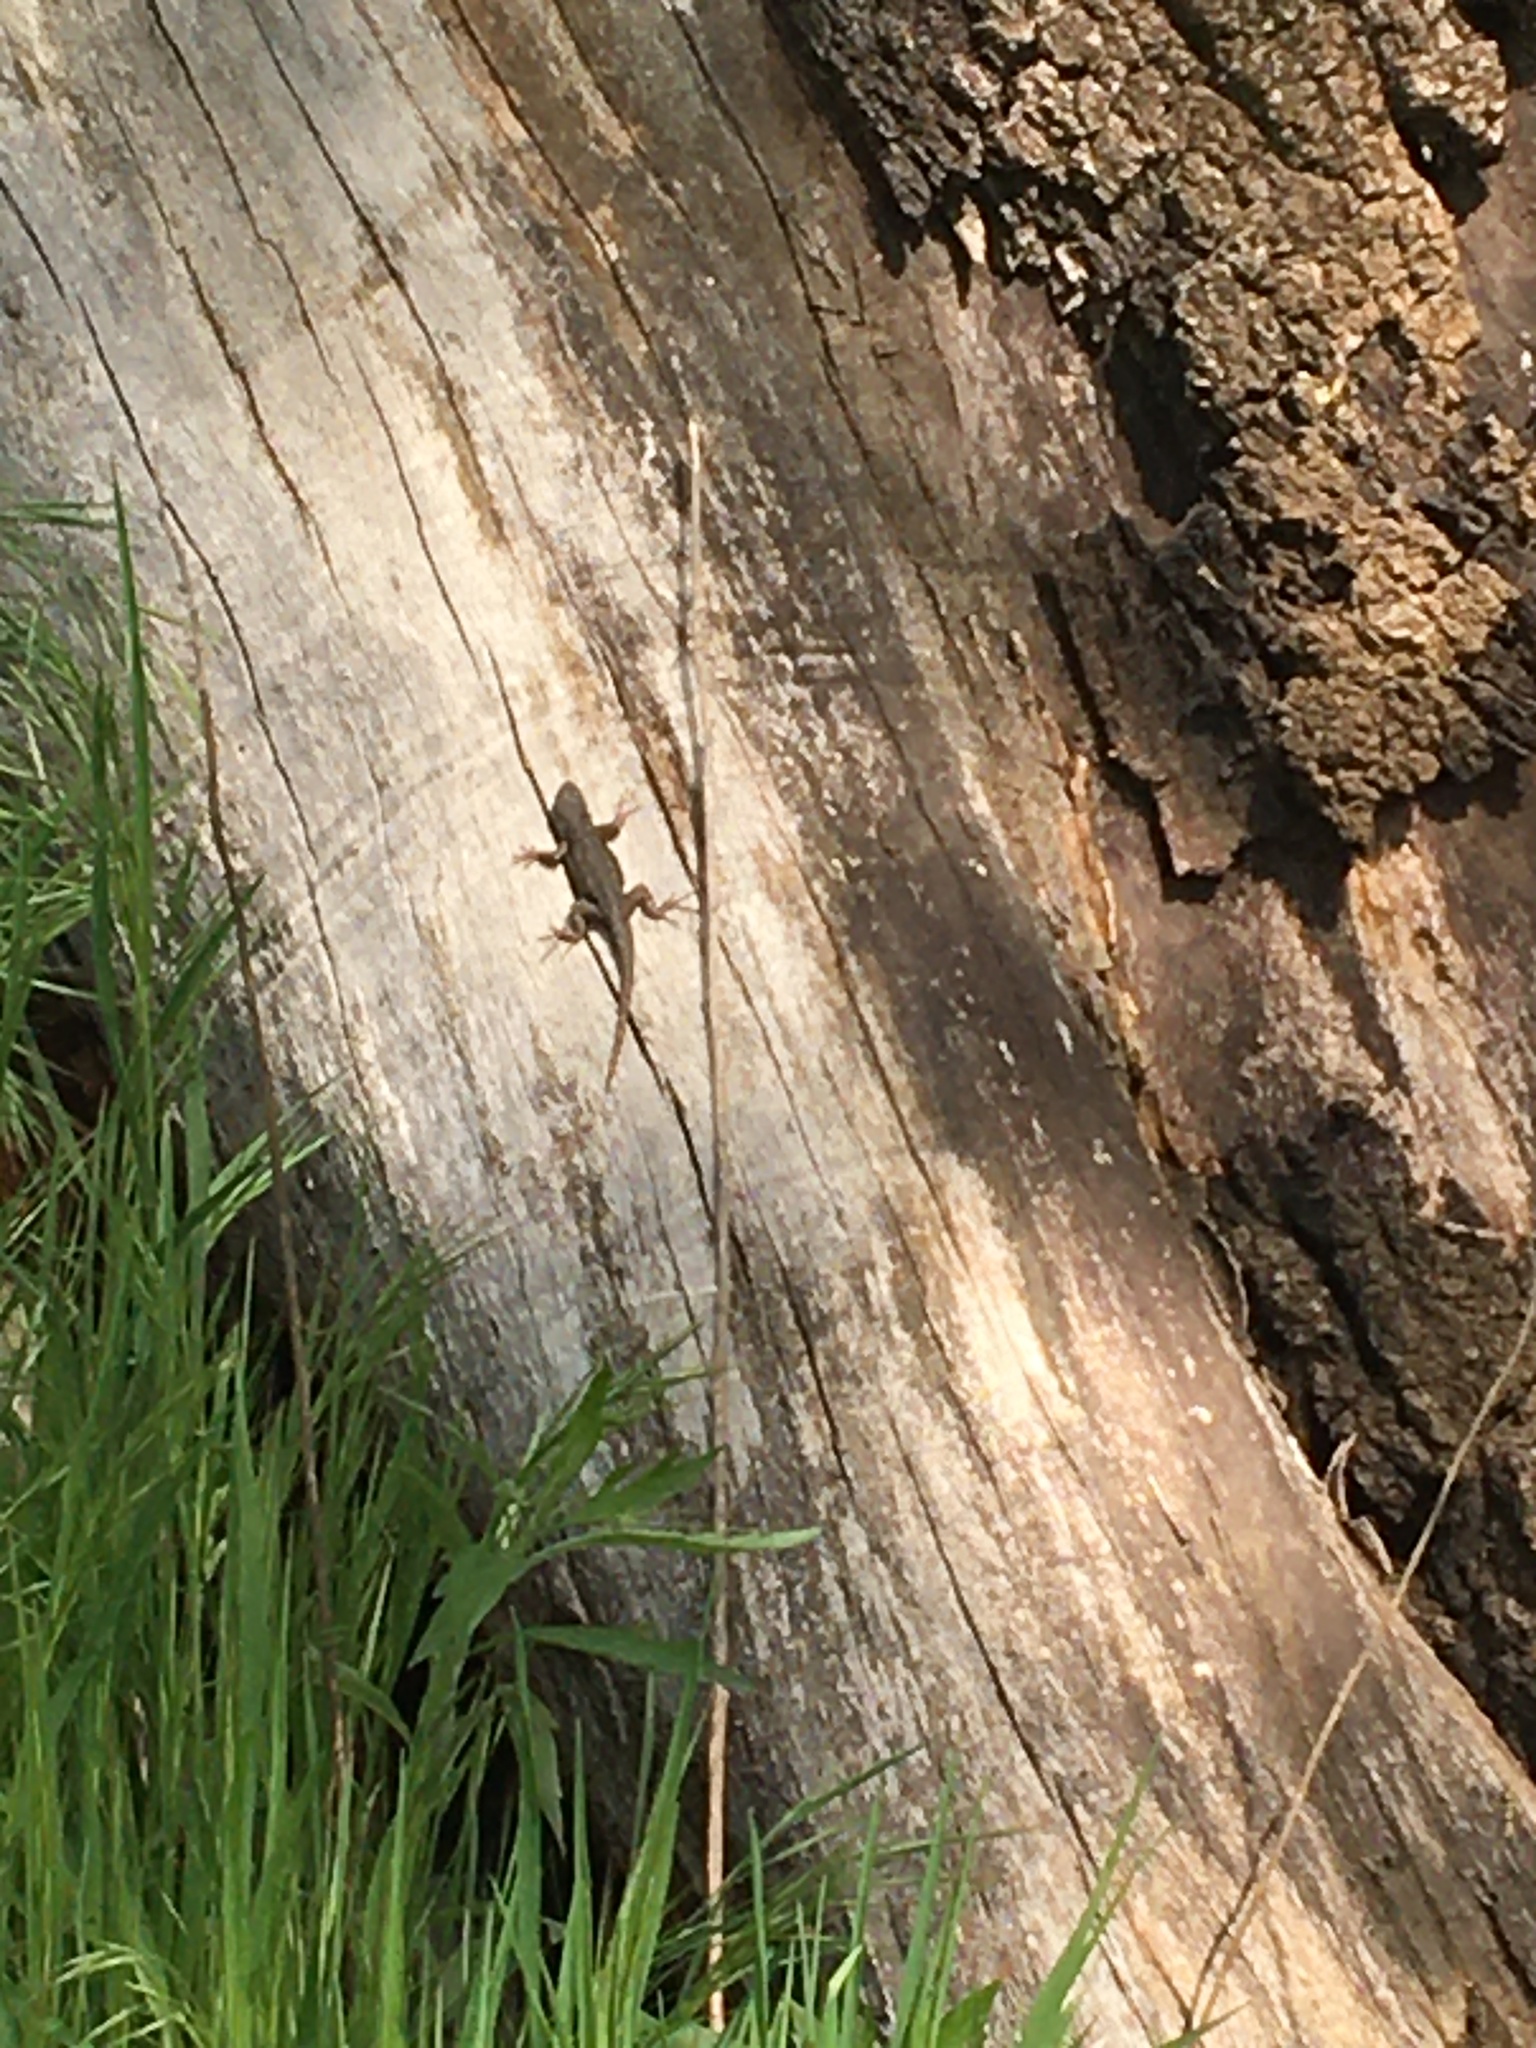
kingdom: Animalia
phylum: Chordata
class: Squamata
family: Phrynosomatidae
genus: Sceloporus
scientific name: Sceloporus occidentalis
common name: Western fence lizard
